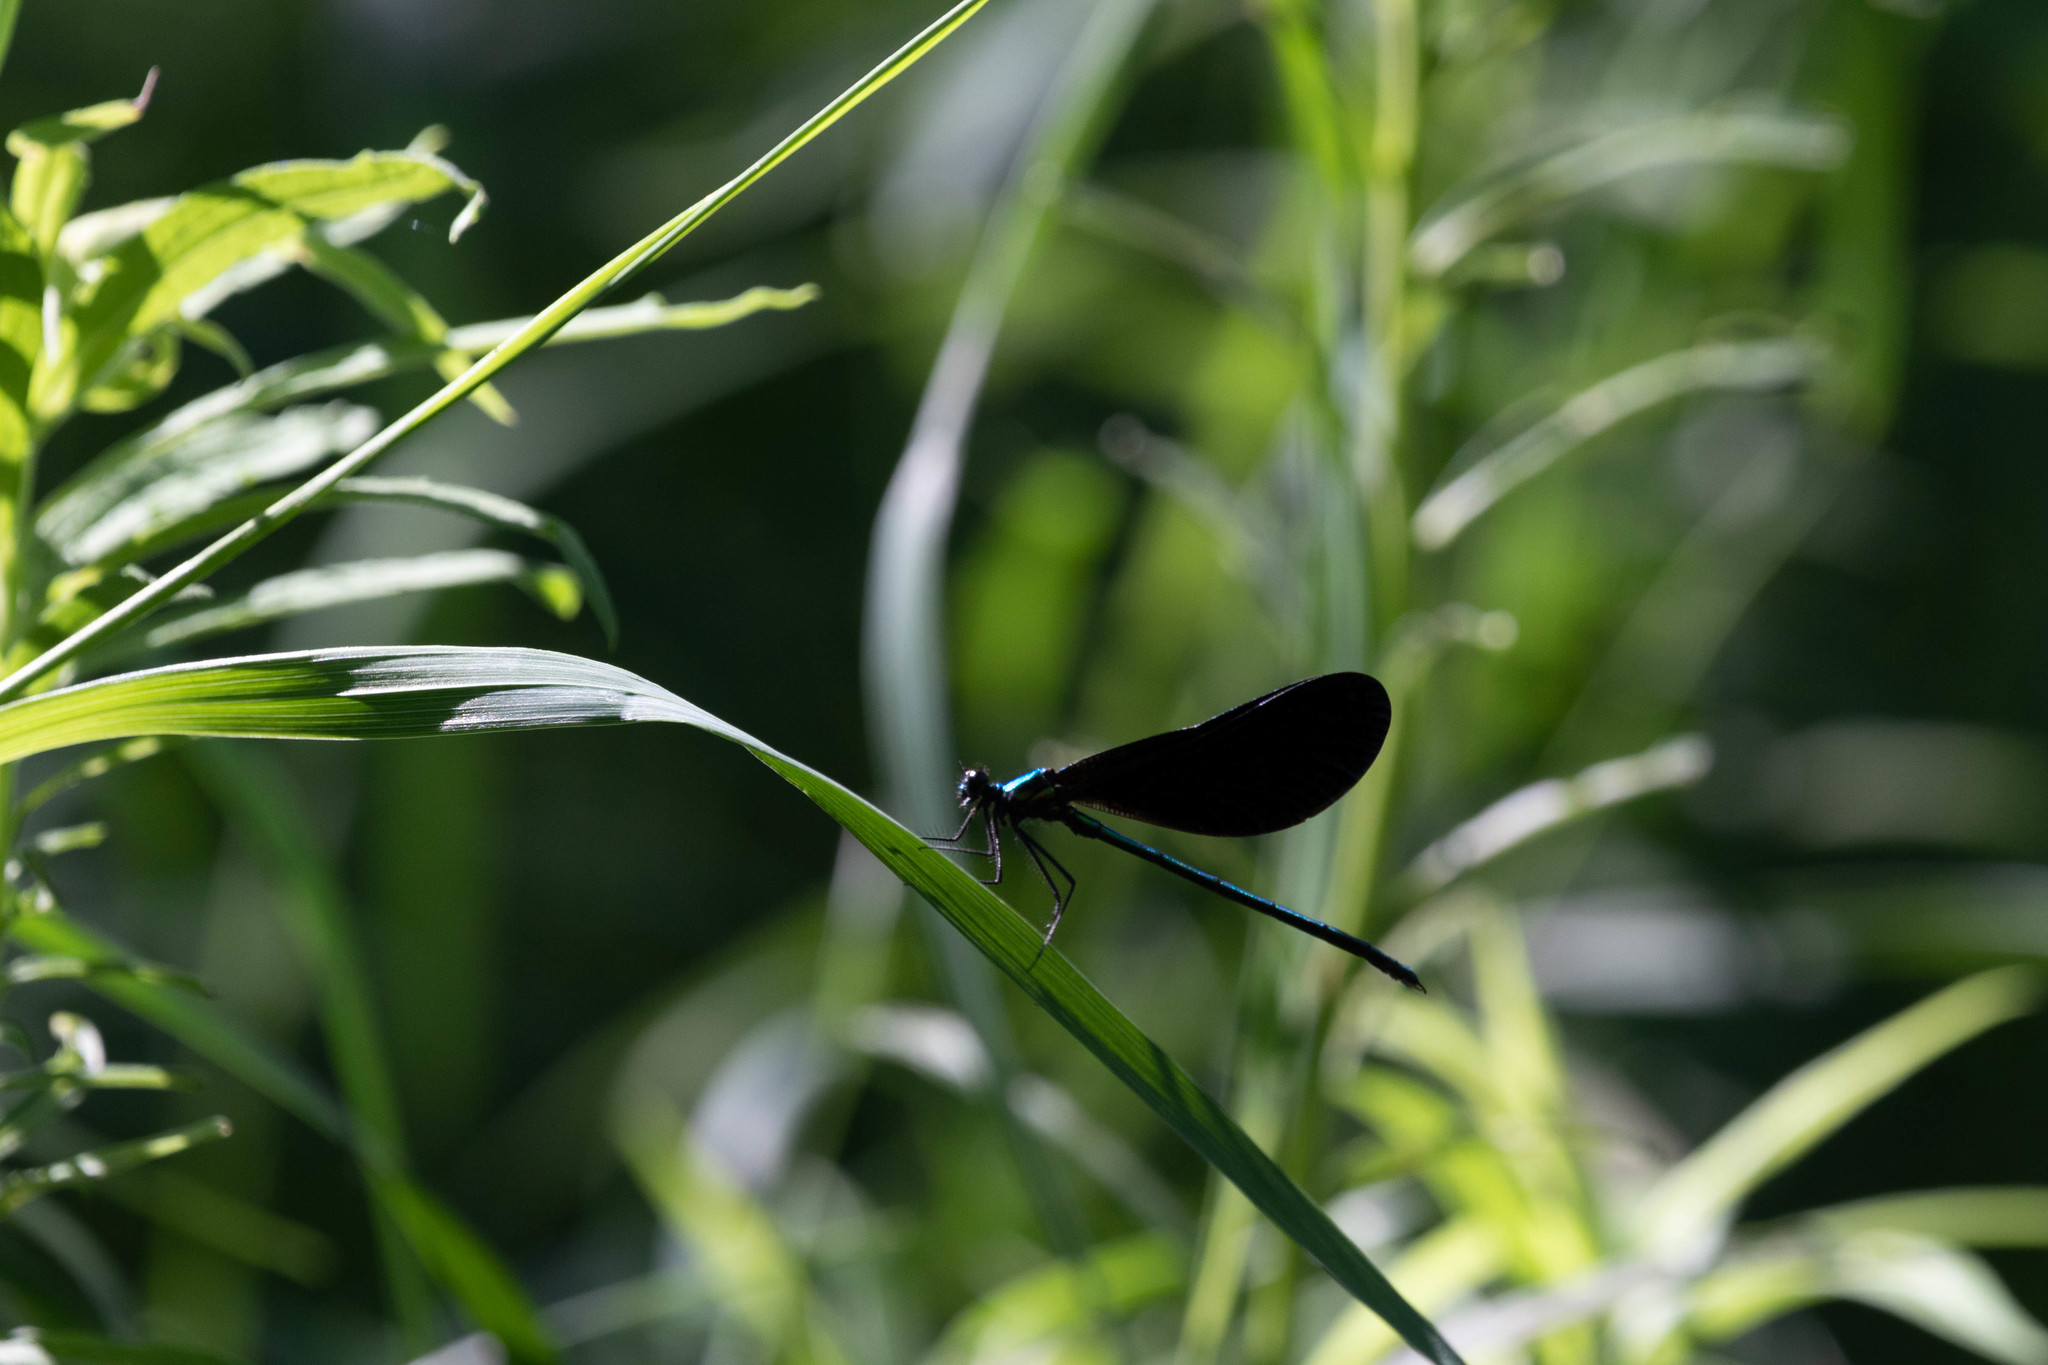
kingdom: Animalia
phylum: Arthropoda
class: Insecta
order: Odonata
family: Calopterygidae
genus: Calopteryx
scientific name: Calopteryx maculata
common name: Ebony jewelwing
